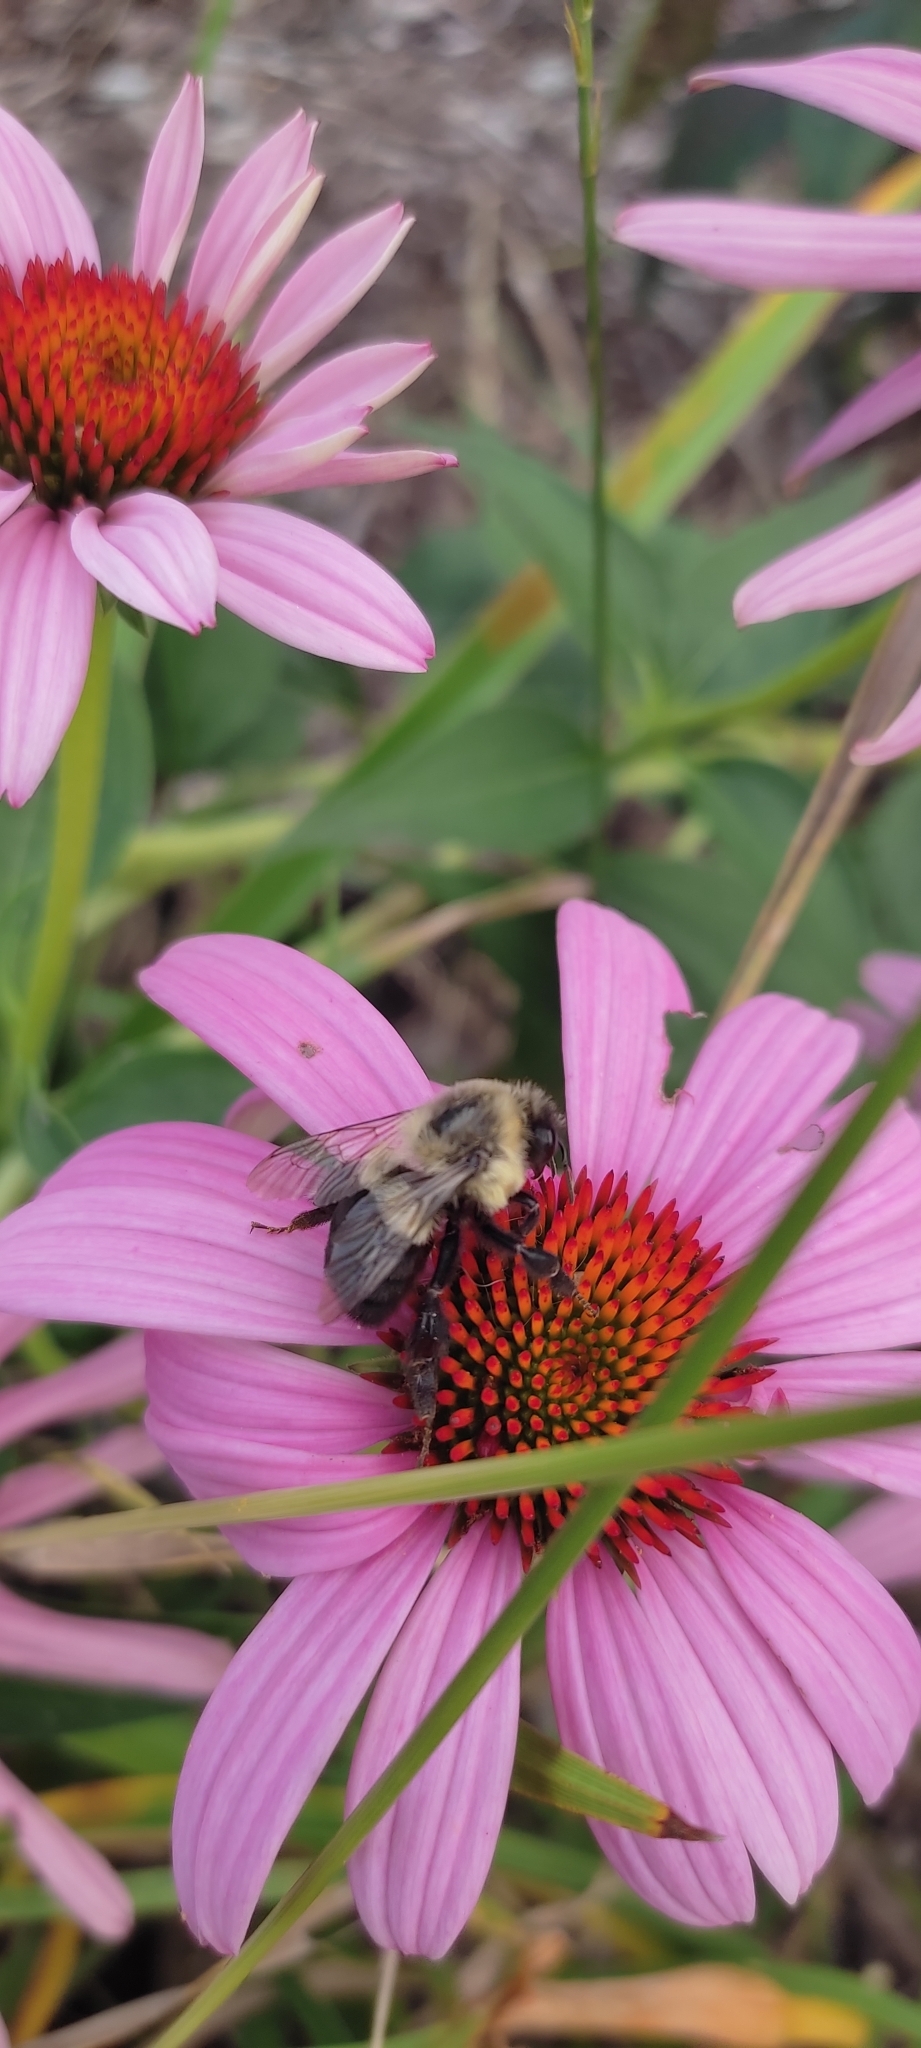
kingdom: Animalia
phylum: Arthropoda
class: Insecta
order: Hymenoptera
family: Apidae
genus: Bombus
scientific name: Bombus impatiens
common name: Common eastern bumble bee
